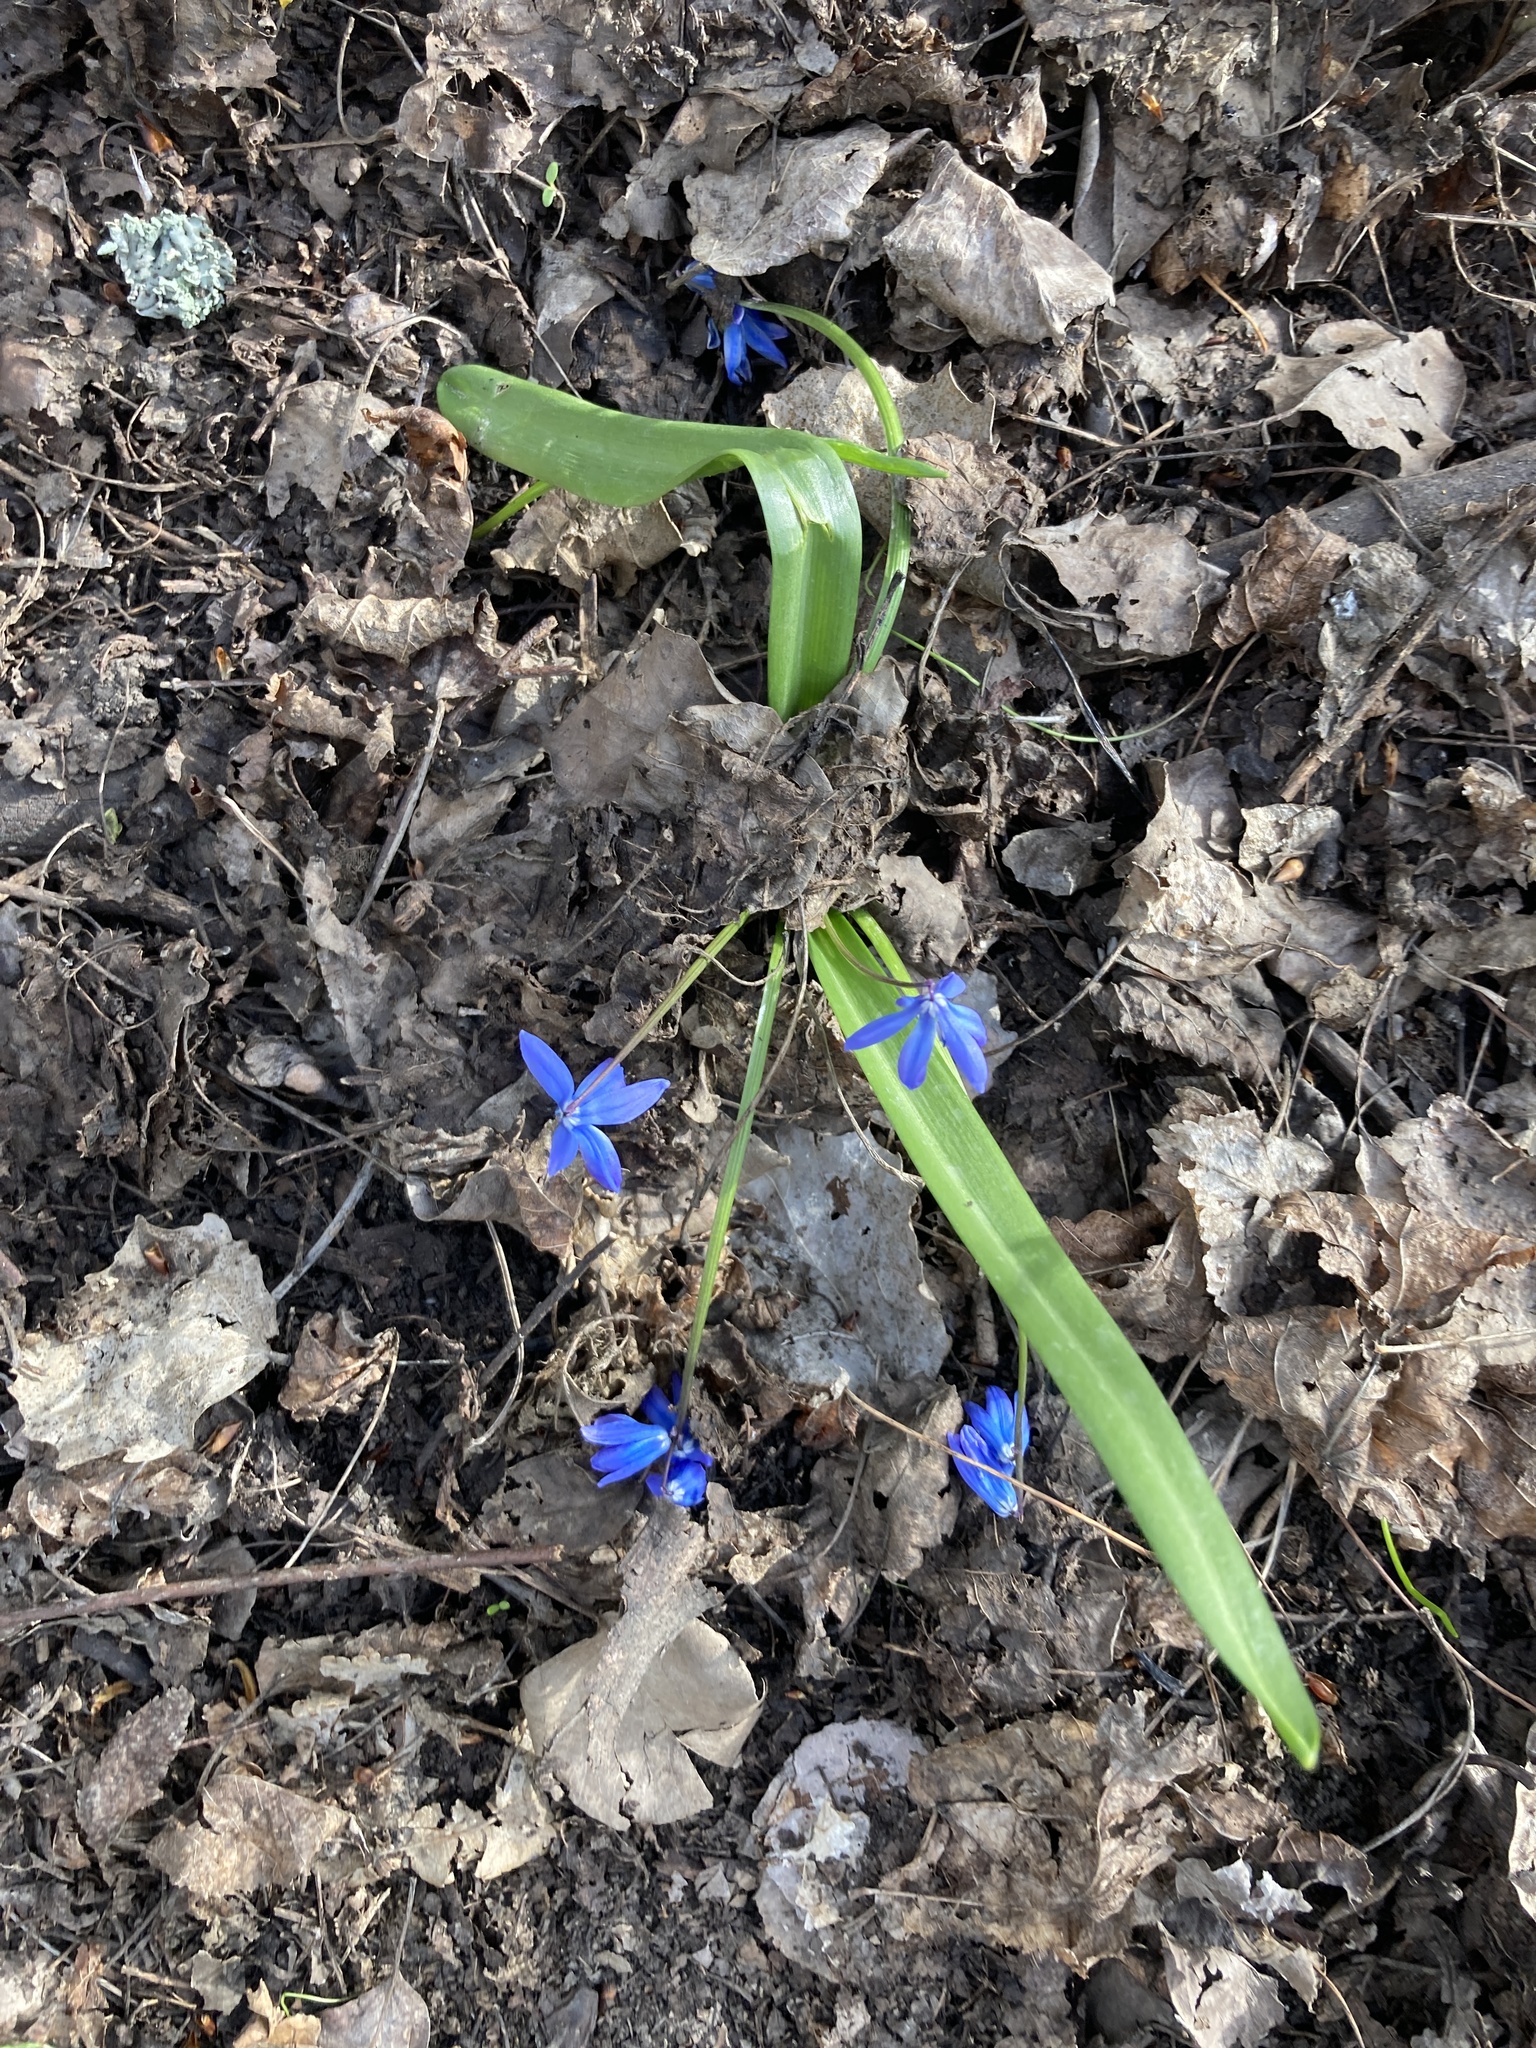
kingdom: Plantae
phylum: Tracheophyta
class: Liliopsida
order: Asparagales
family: Asparagaceae
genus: Scilla
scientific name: Scilla siberica
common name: Siberian squill
